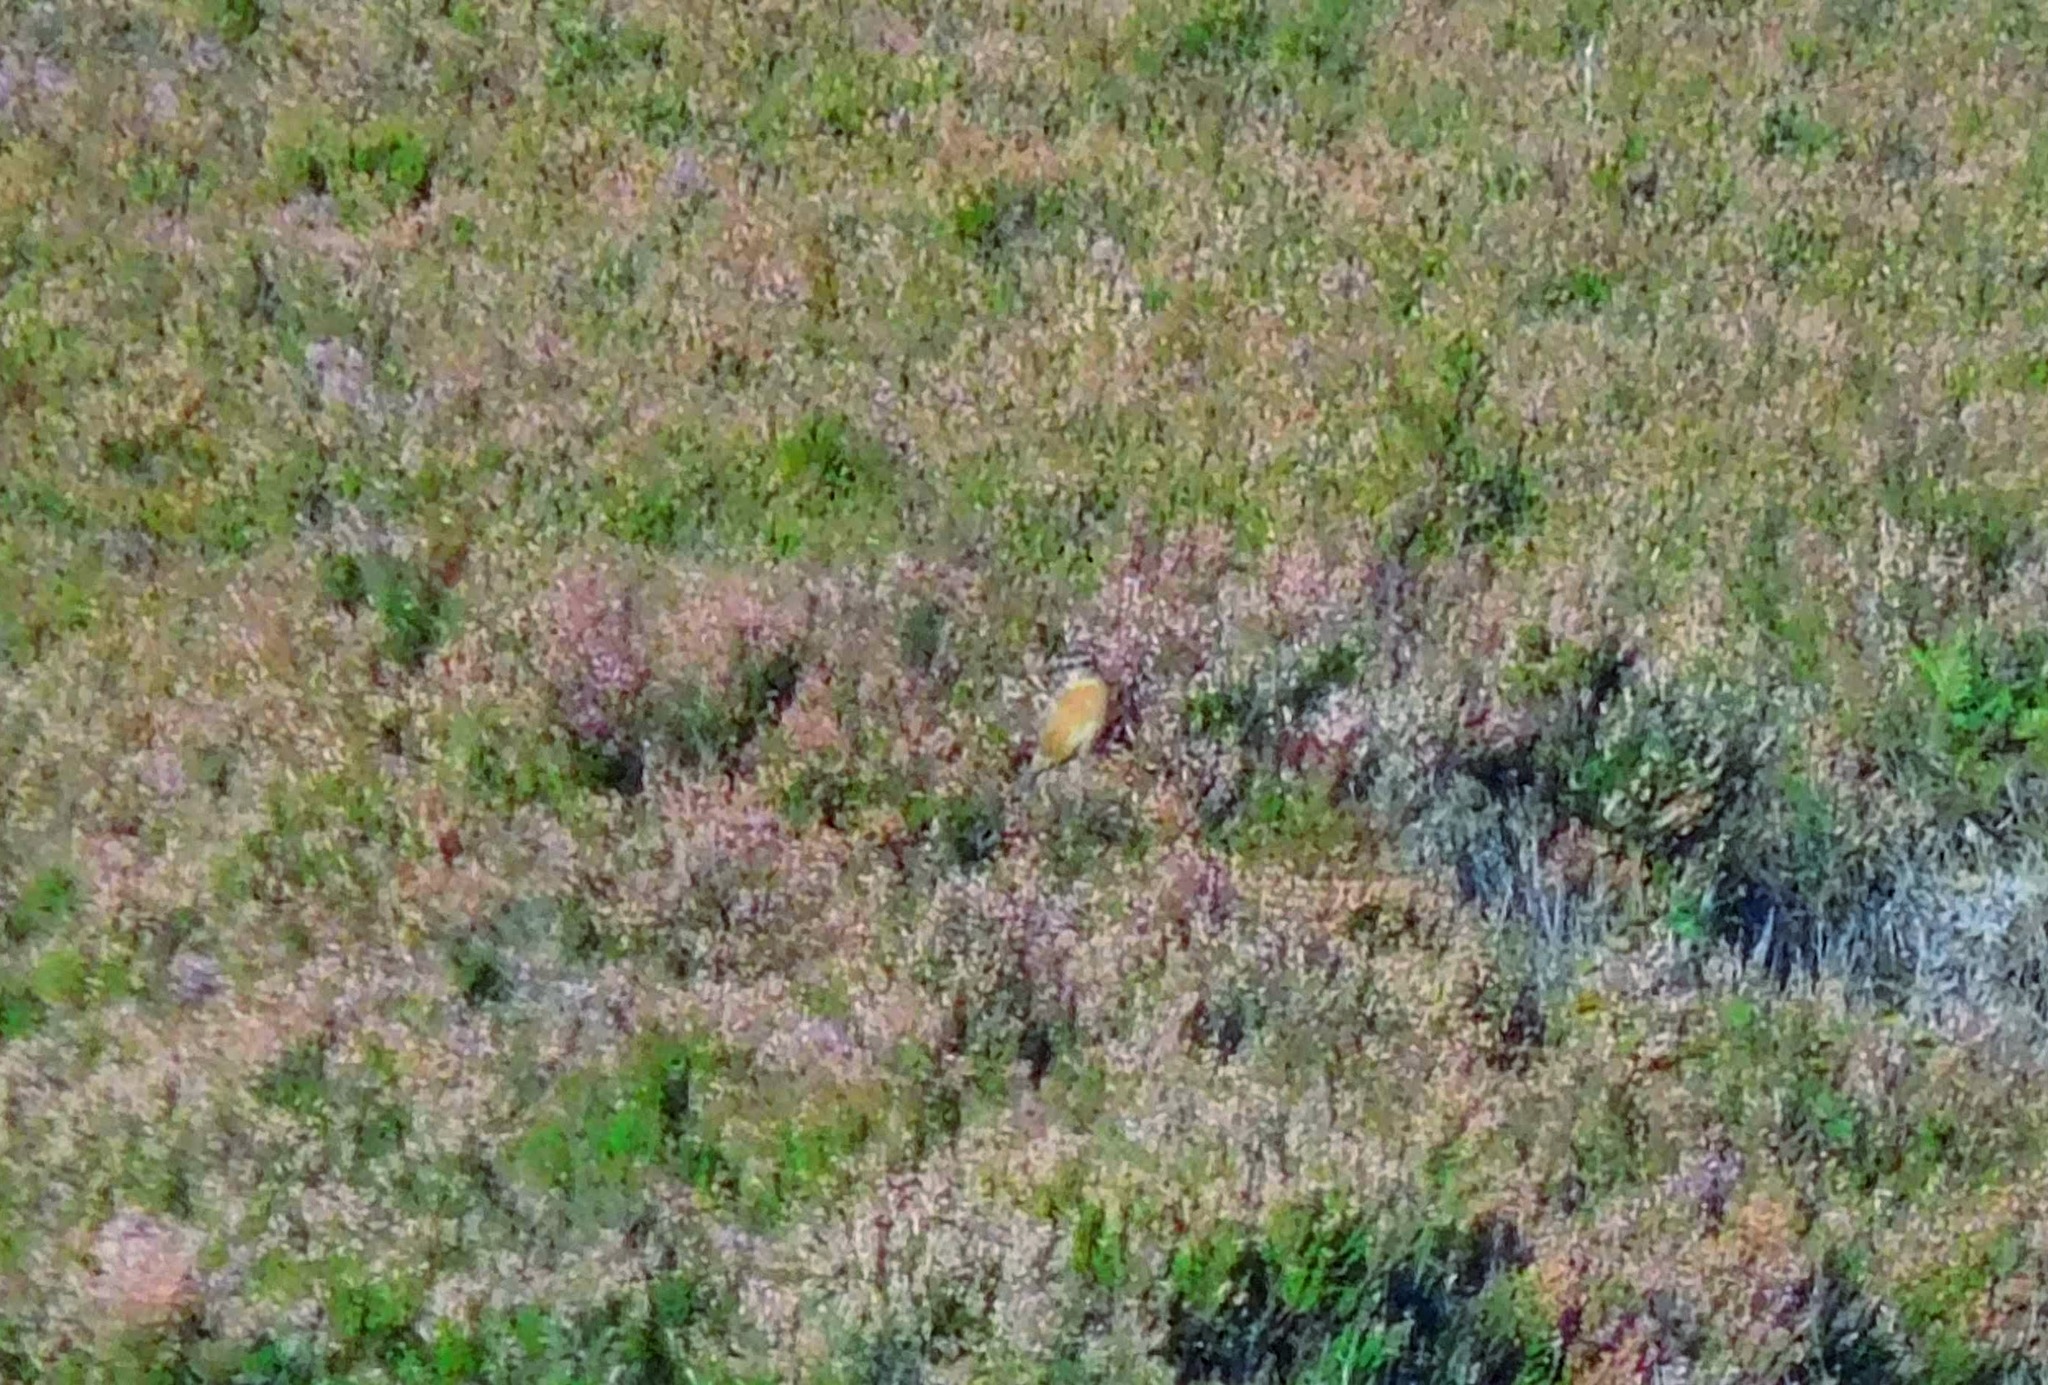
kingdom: Animalia
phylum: Chordata
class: Aves
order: Passeriformes
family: Muscicapidae
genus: Saxicola
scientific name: Saxicola rubicola
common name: European stonechat
